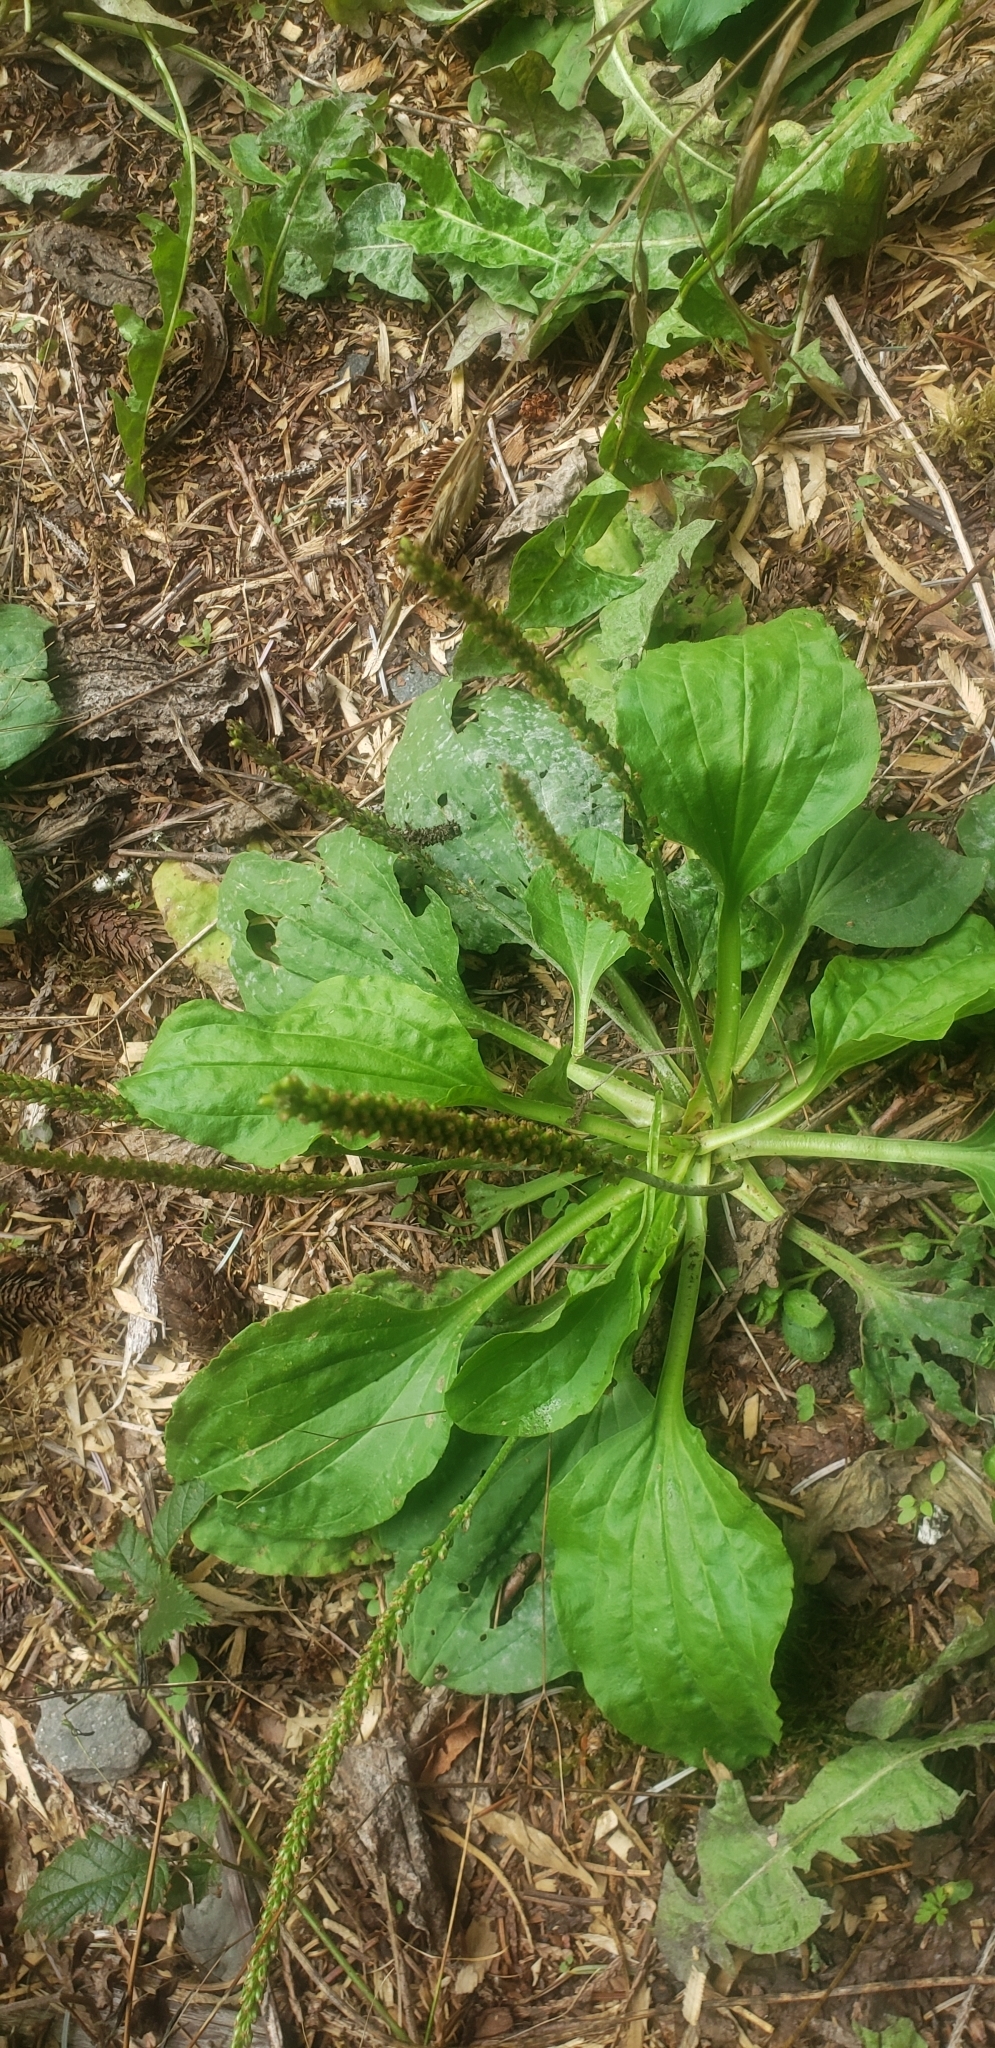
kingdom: Plantae
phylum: Tracheophyta
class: Magnoliopsida
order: Lamiales
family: Plantaginaceae
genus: Plantago
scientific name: Plantago major
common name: Common plantain
